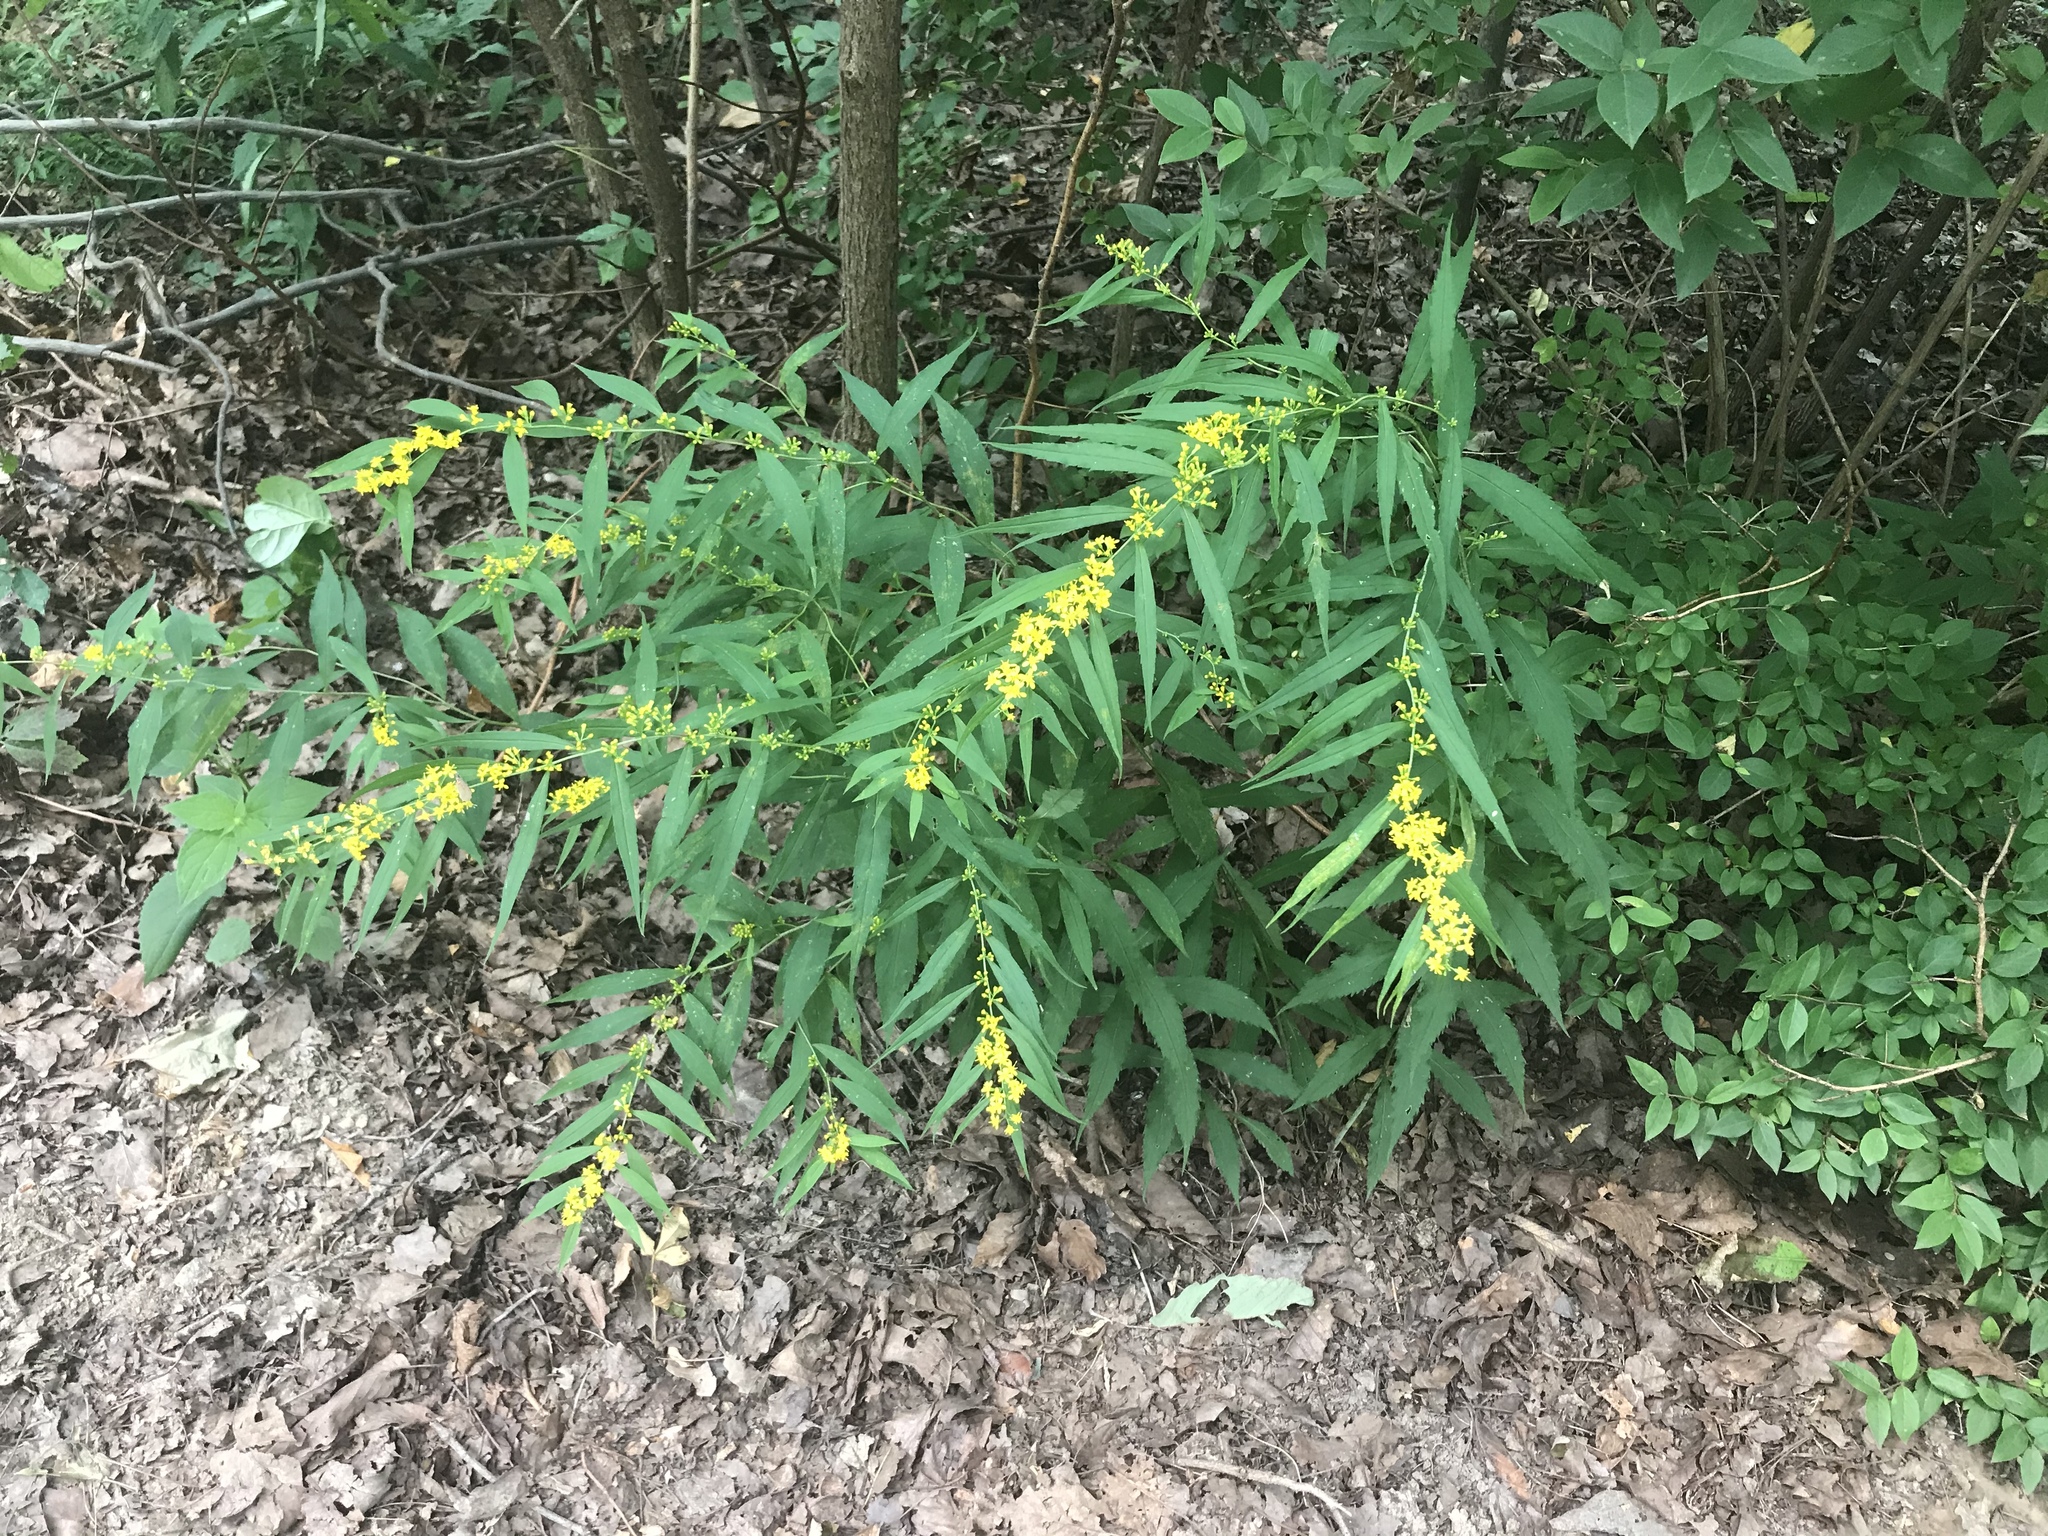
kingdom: Plantae
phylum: Tracheophyta
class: Magnoliopsida
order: Asterales
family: Asteraceae
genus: Solidago
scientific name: Solidago caesia
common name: Woodland goldenrod
